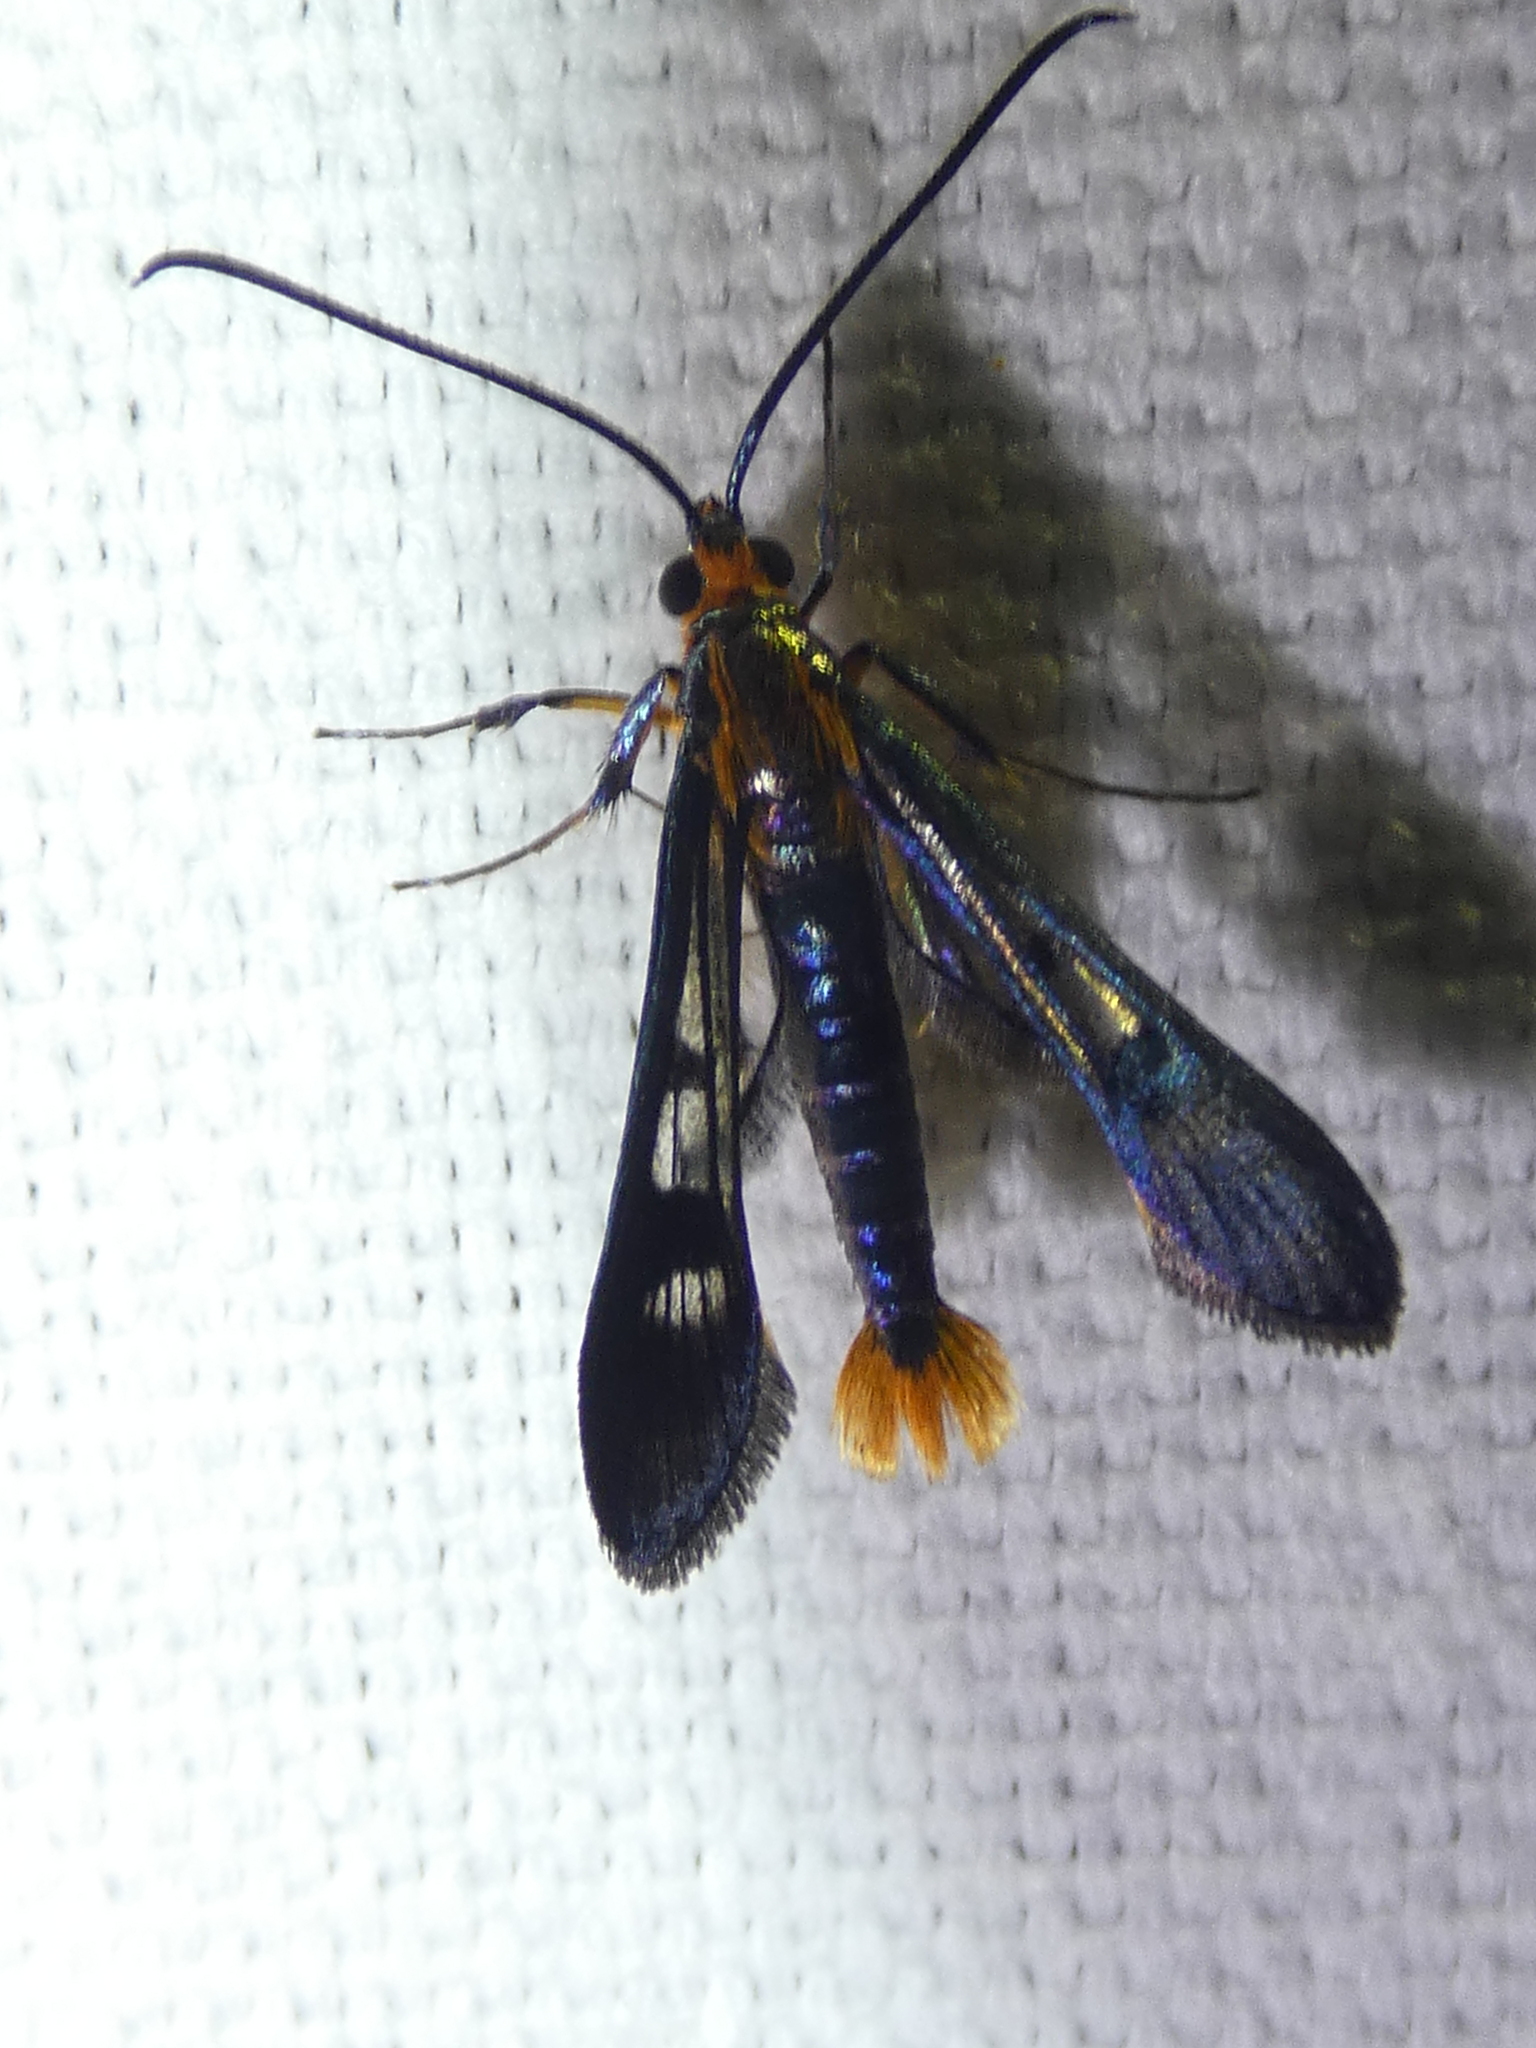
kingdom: Animalia
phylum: Arthropoda
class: Insecta
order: Lepidoptera
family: Sesiidae
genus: Synanthedon
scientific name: Synanthedon acerni
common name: Maple callus borer moth
